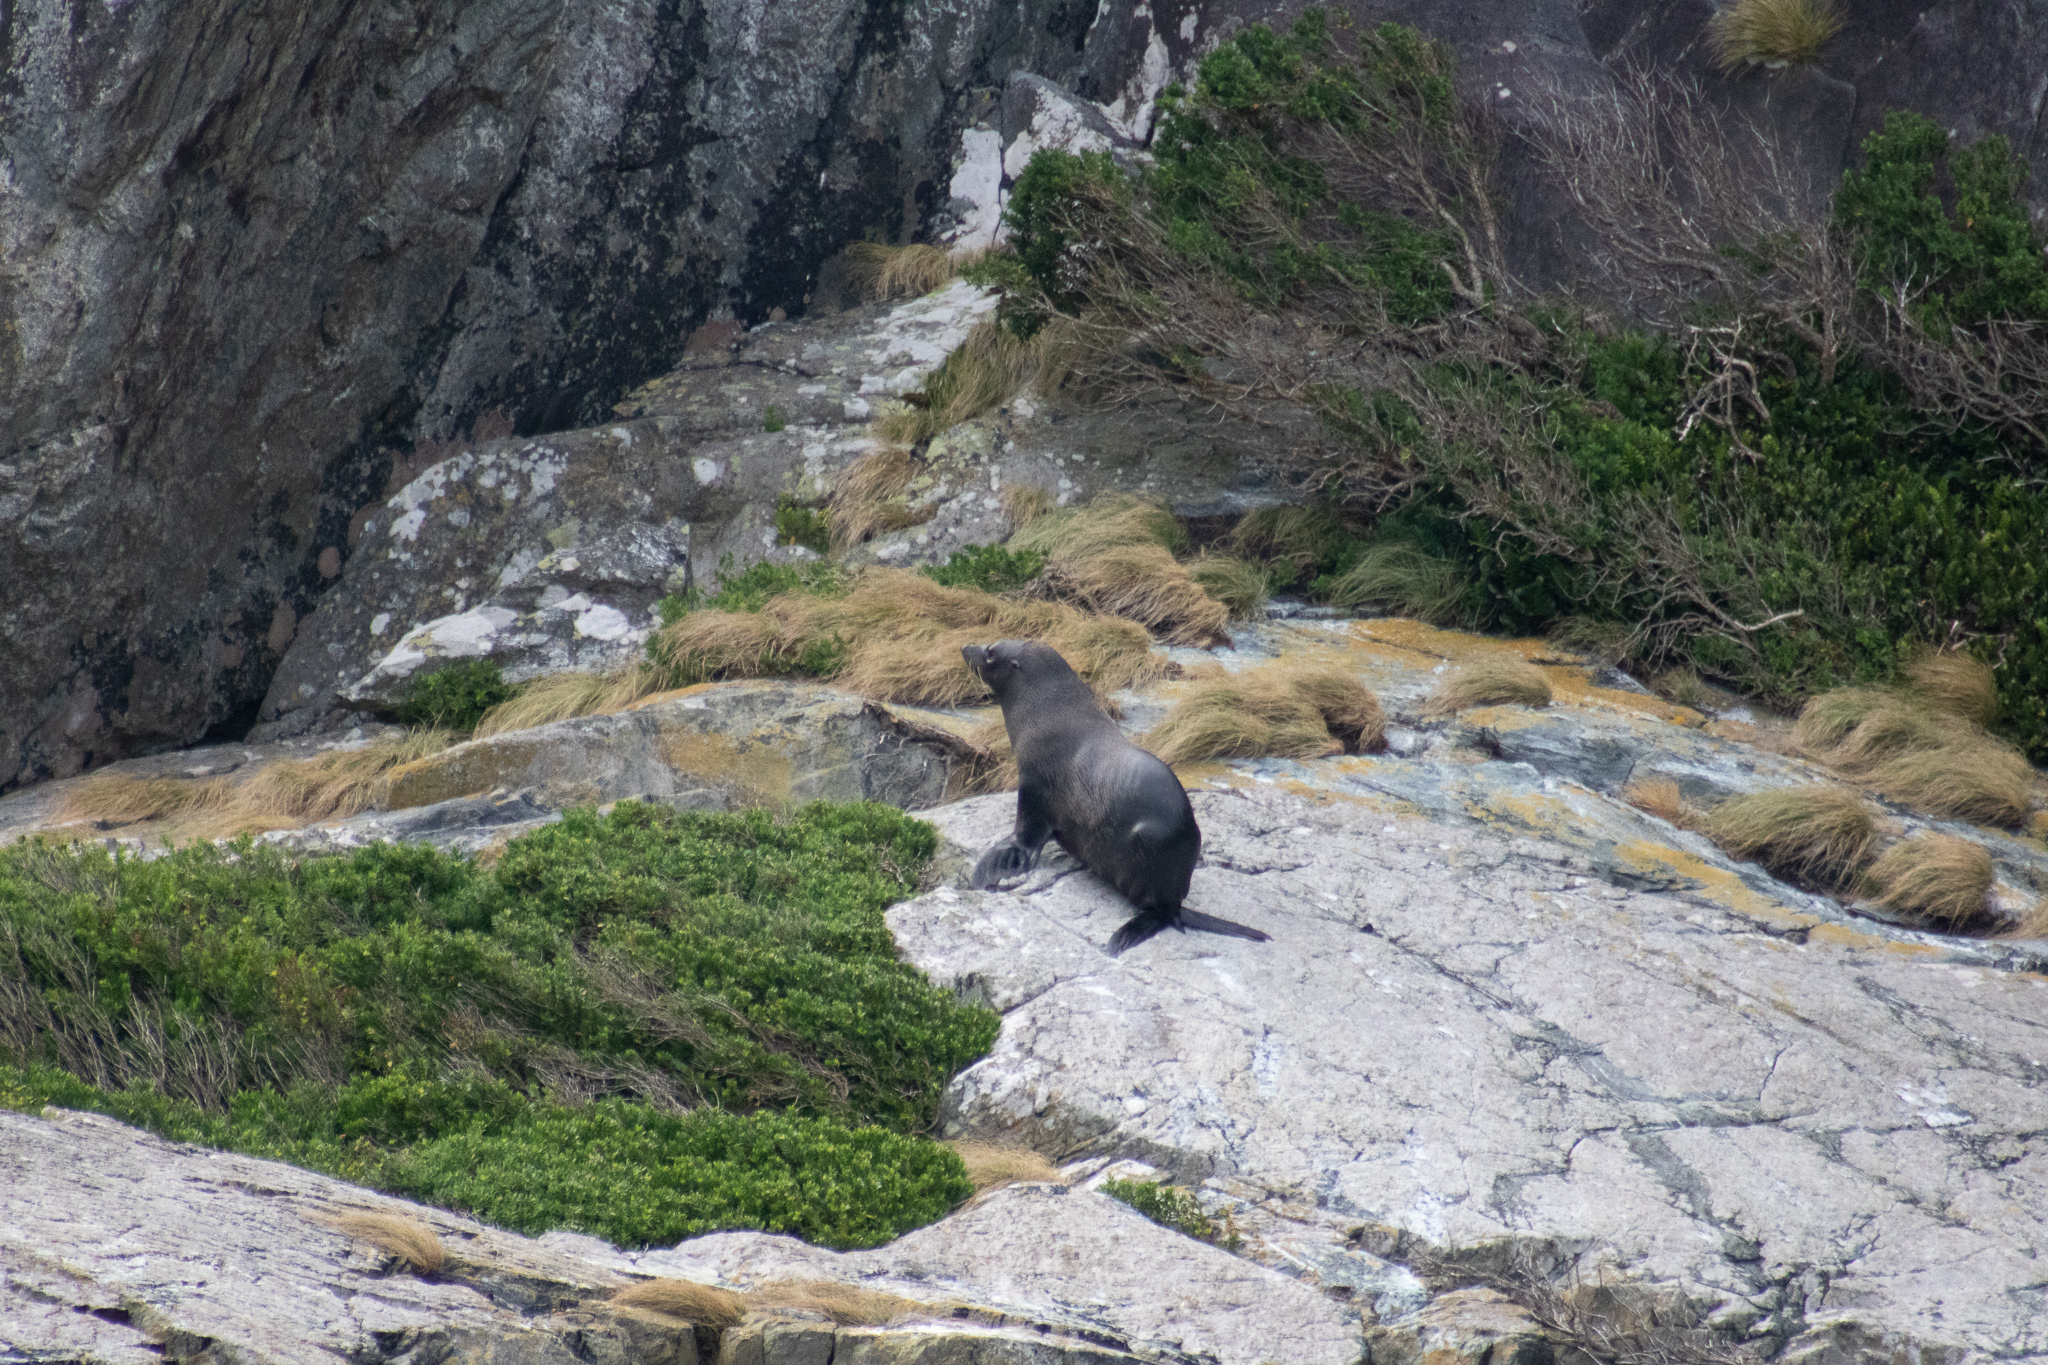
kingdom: Animalia
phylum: Chordata
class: Mammalia
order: Carnivora
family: Otariidae
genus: Arctocephalus
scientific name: Arctocephalus forsteri
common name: New zealand fur seal
